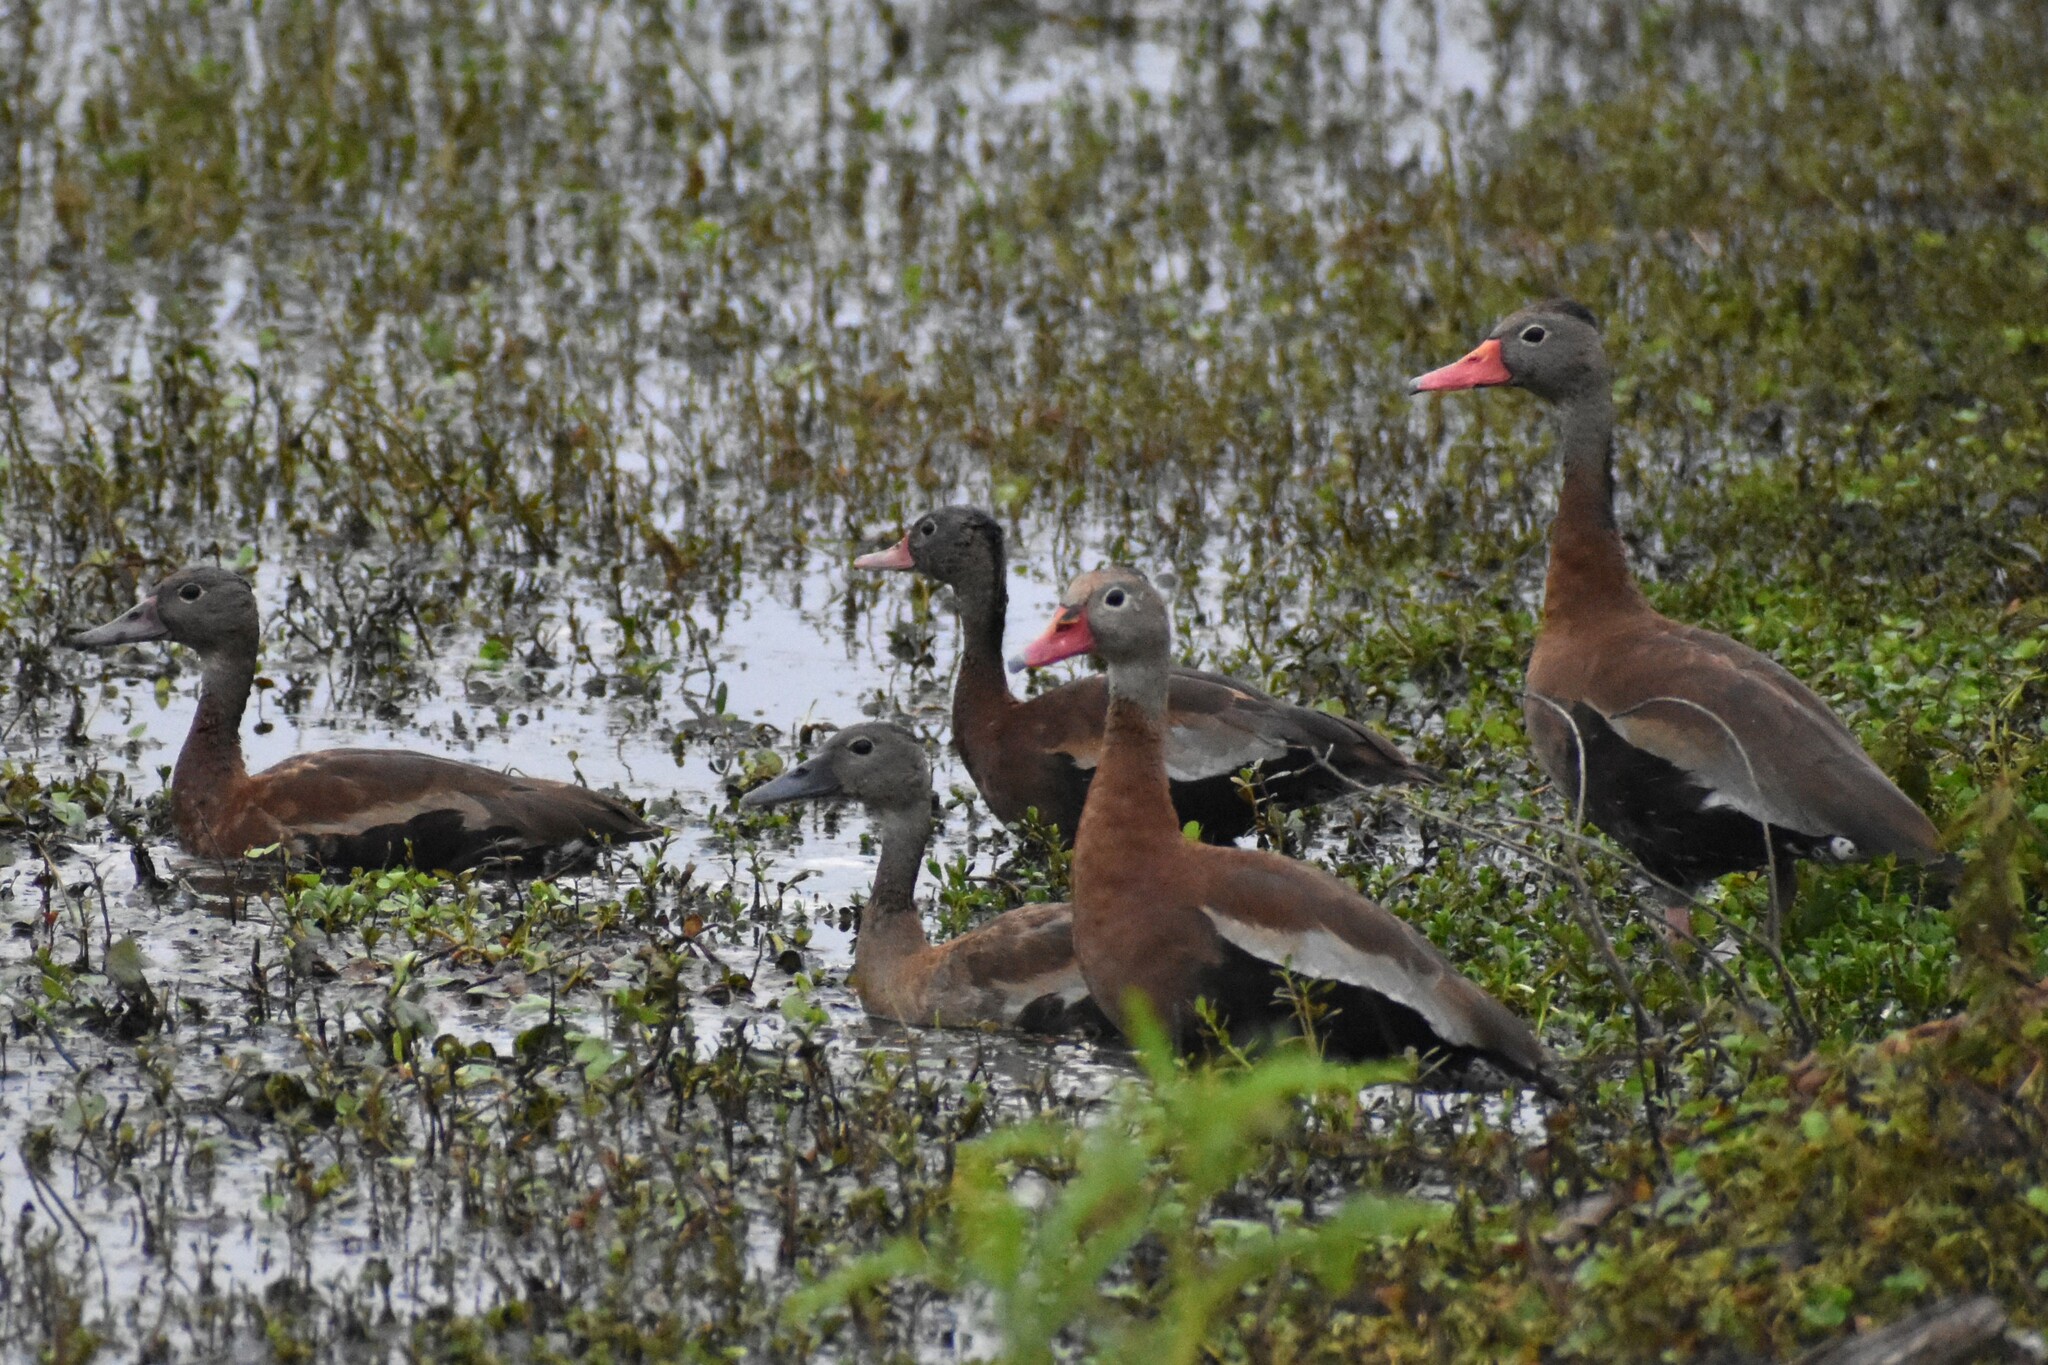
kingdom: Animalia
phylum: Chordata
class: Aves
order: Anseriformes
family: Anatidae
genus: Dendrocygna
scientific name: Dendrocygna autumnalis
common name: Black-bellied whistling duck
